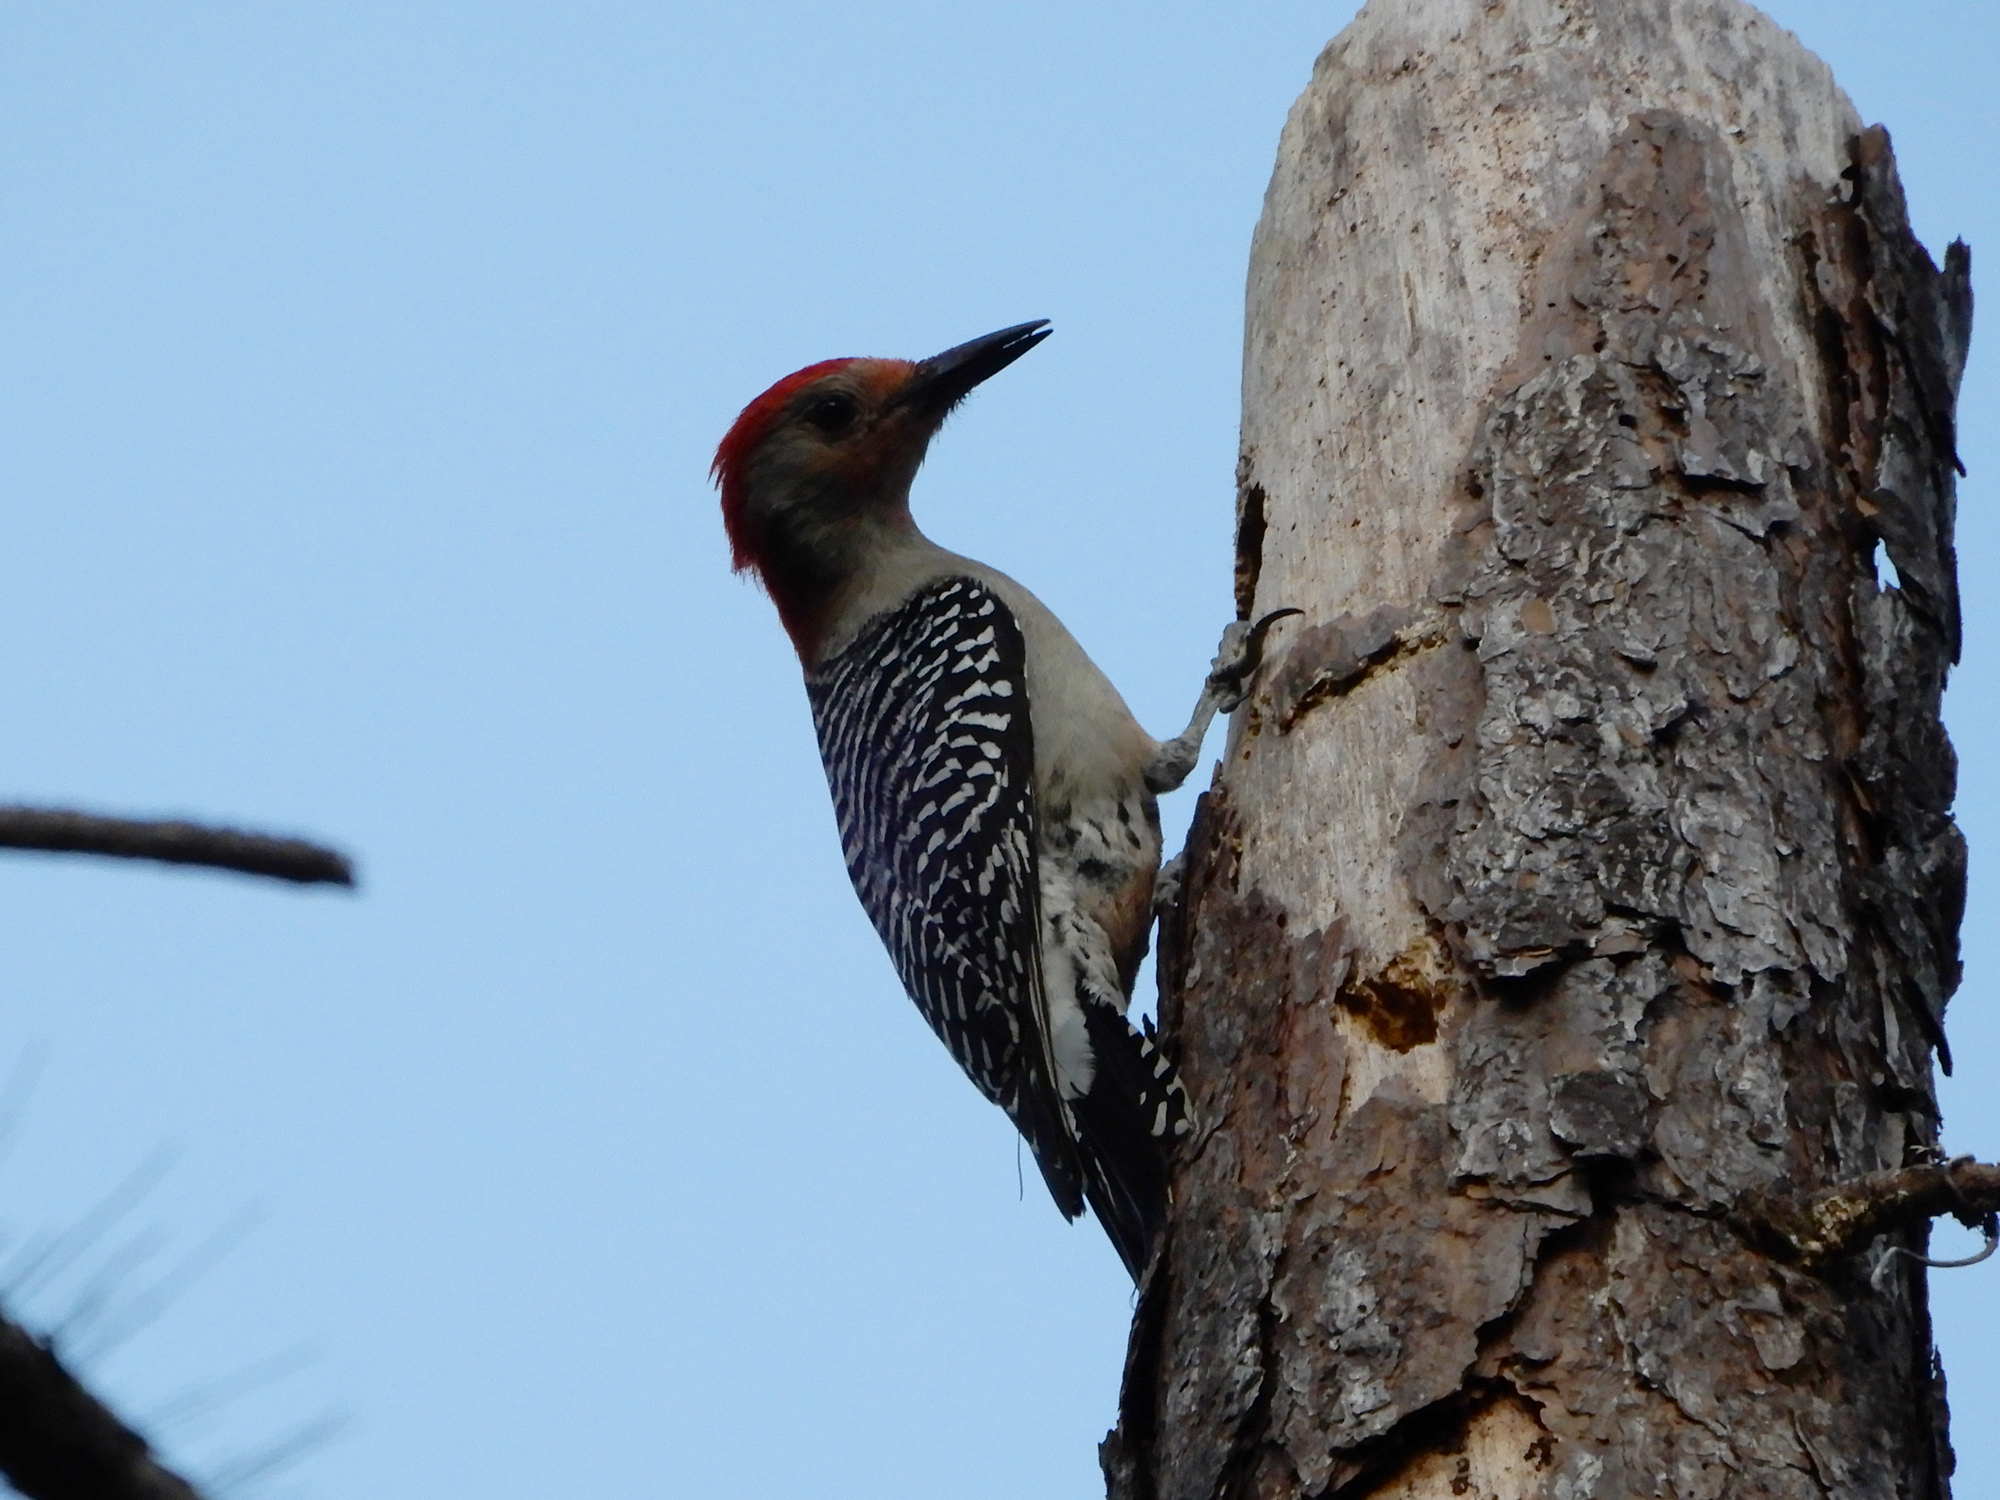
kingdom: Animalia
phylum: Chordata
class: Aves
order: Piciformes
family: Picidae
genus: Melanerpes
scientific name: Melanerpes carolinus
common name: Red-bellied woodpecker
